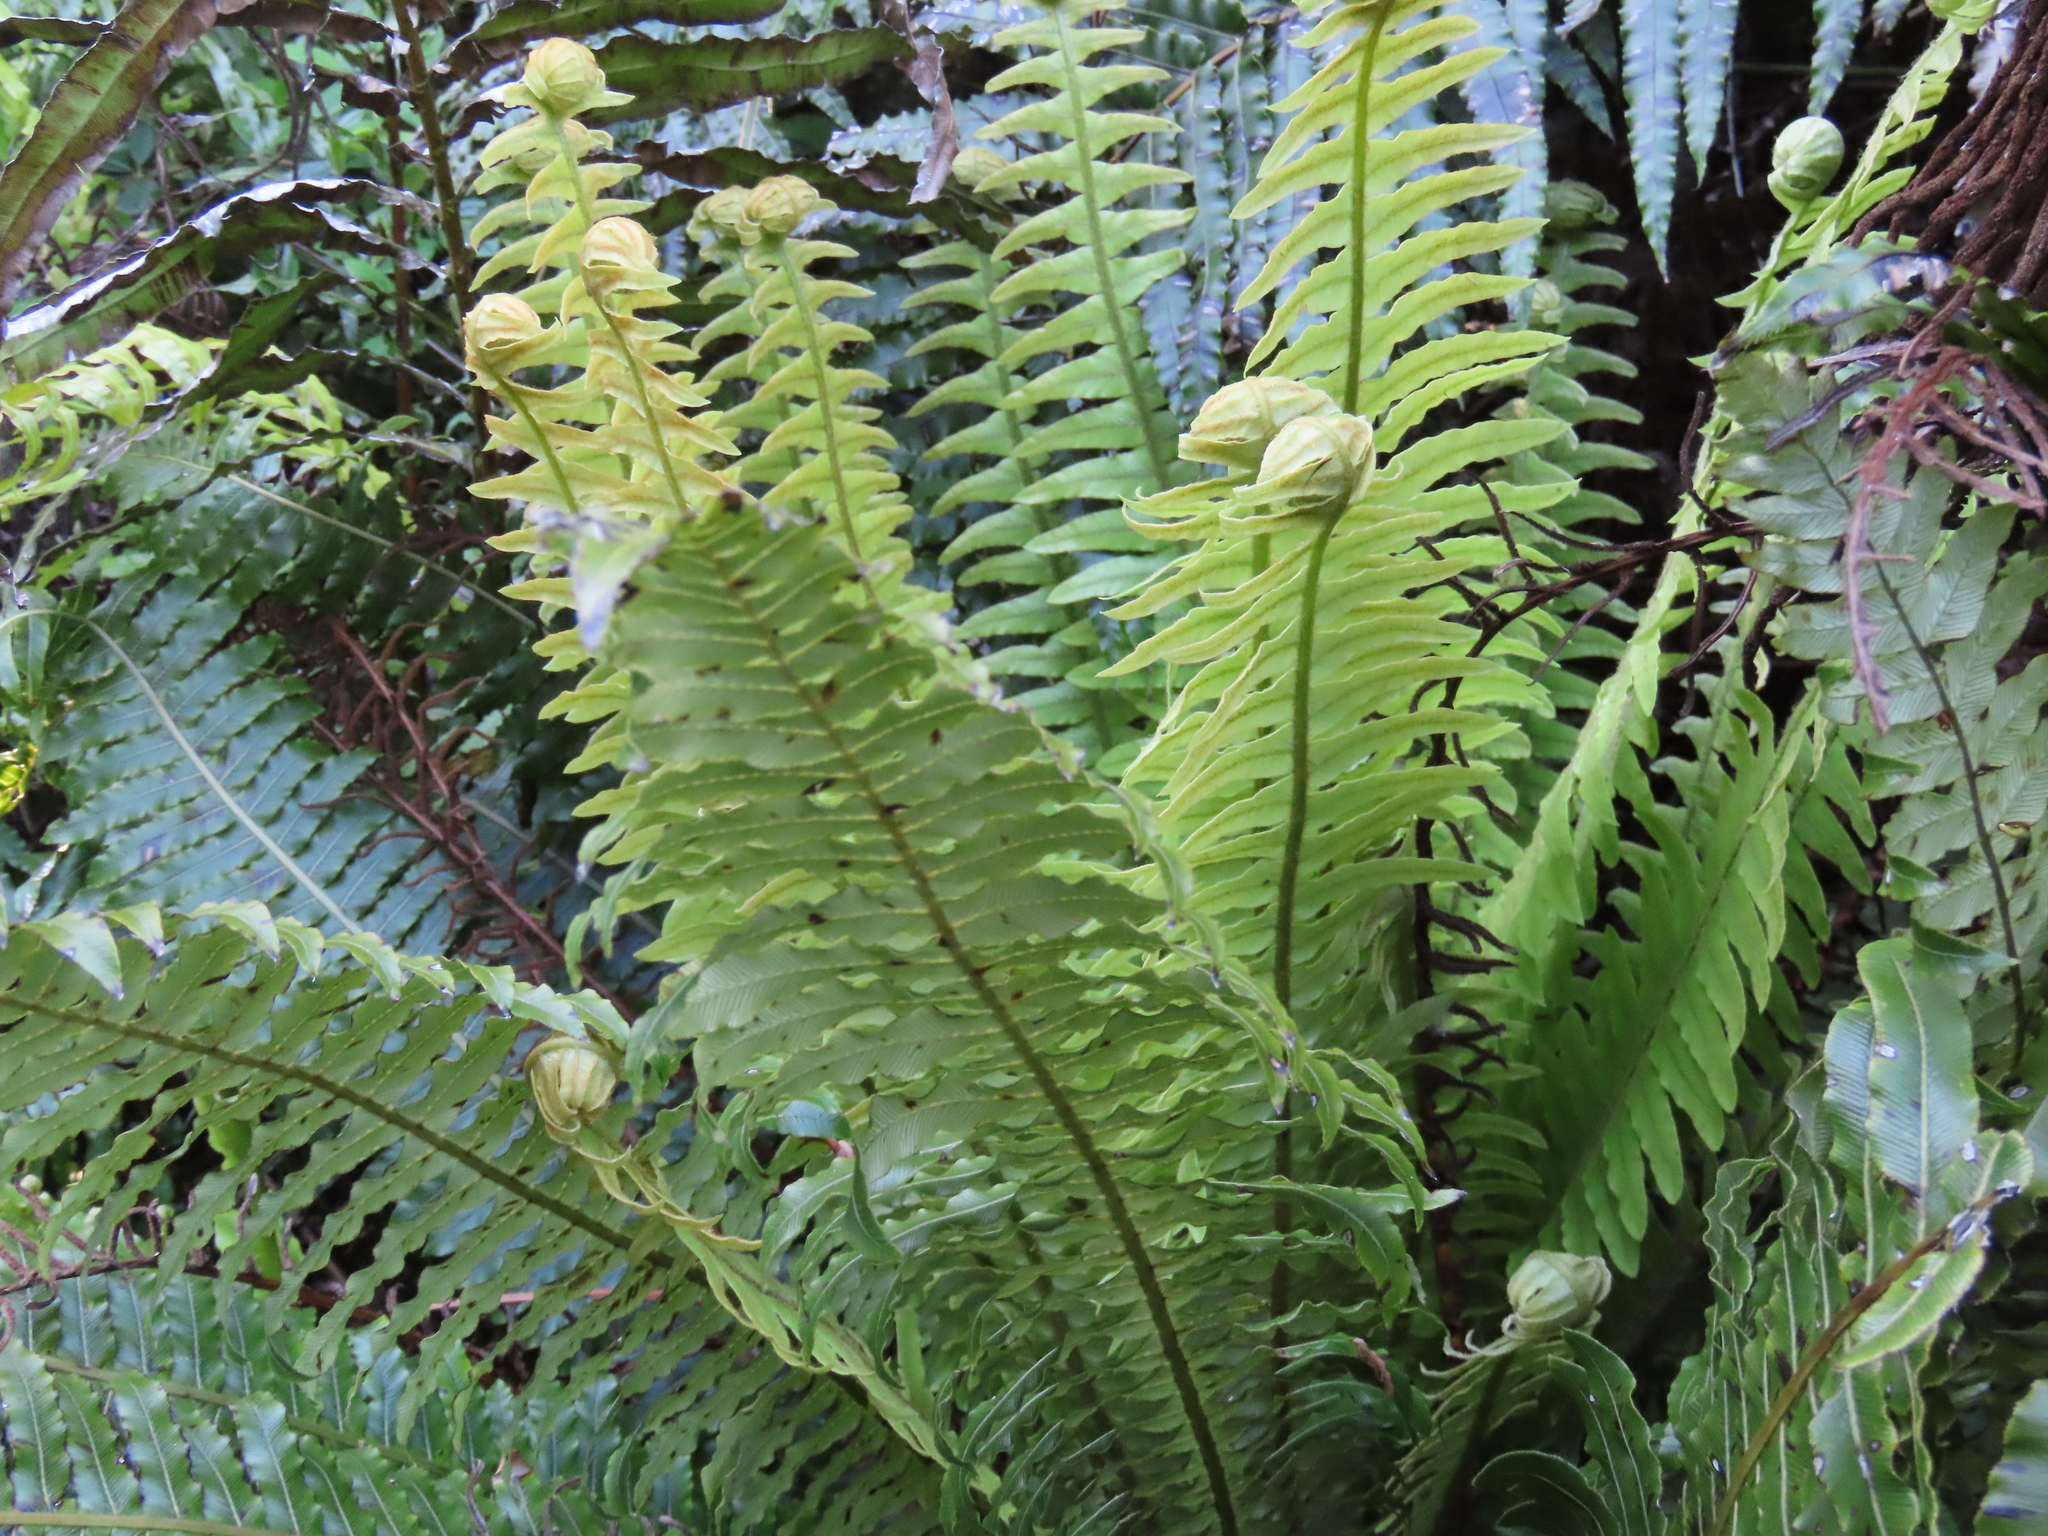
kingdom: Plantae
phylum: Tracheophyta
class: Polypodiopsida
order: Polypodiales
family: Blechnaceae
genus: Lomaria
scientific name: Lomaria discolor
